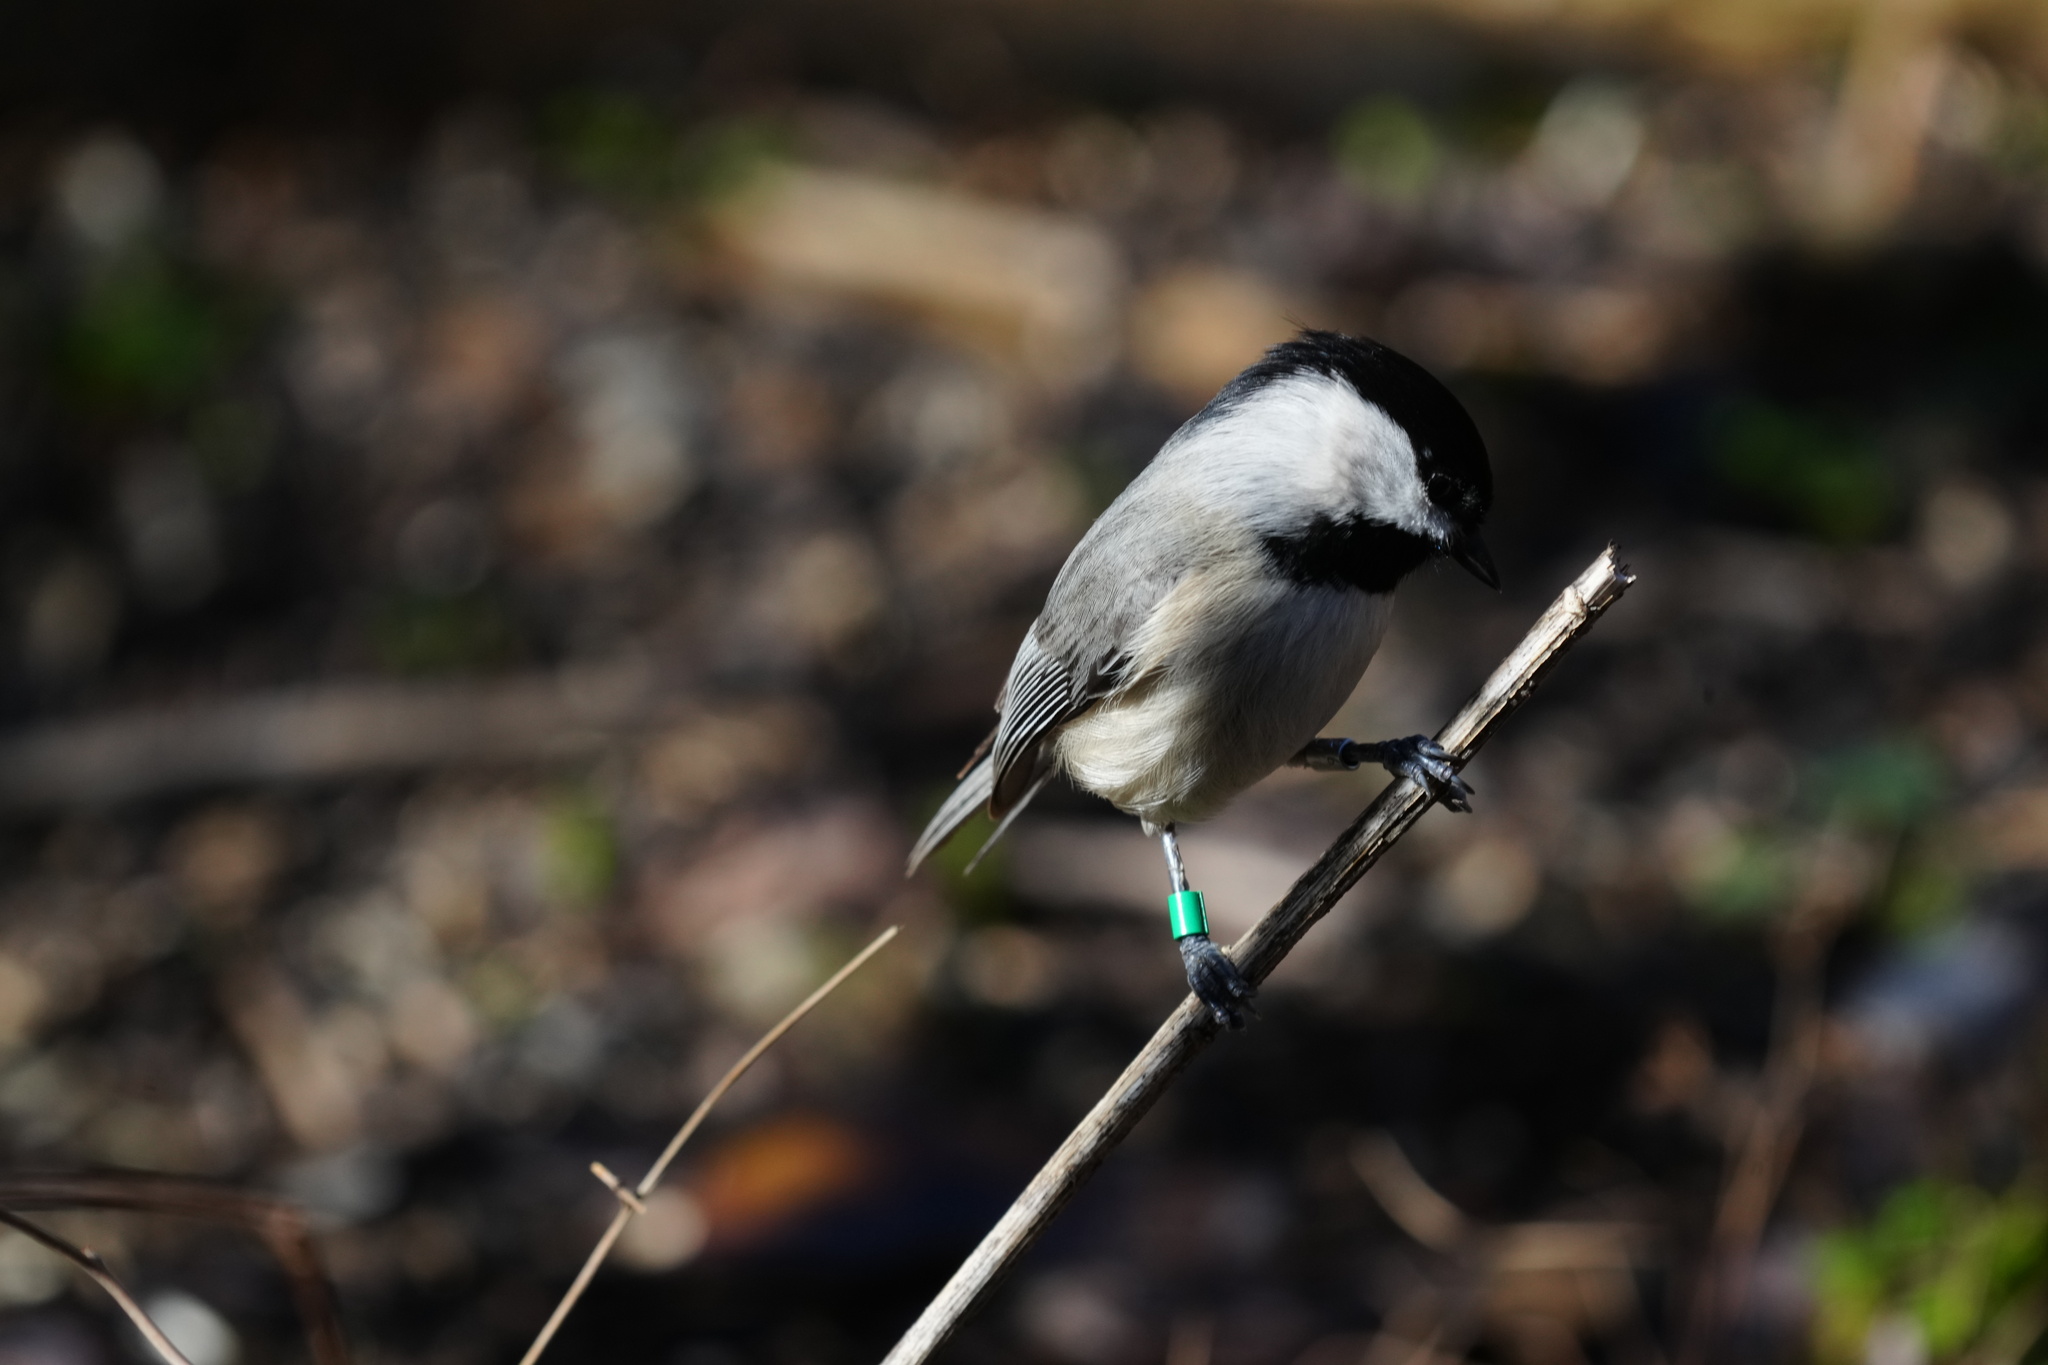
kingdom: Animalia
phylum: Chordata
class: Aves
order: Passeriformes
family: Paridae
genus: Poecile
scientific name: Poecile carolinensis
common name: Carolina chickadee
